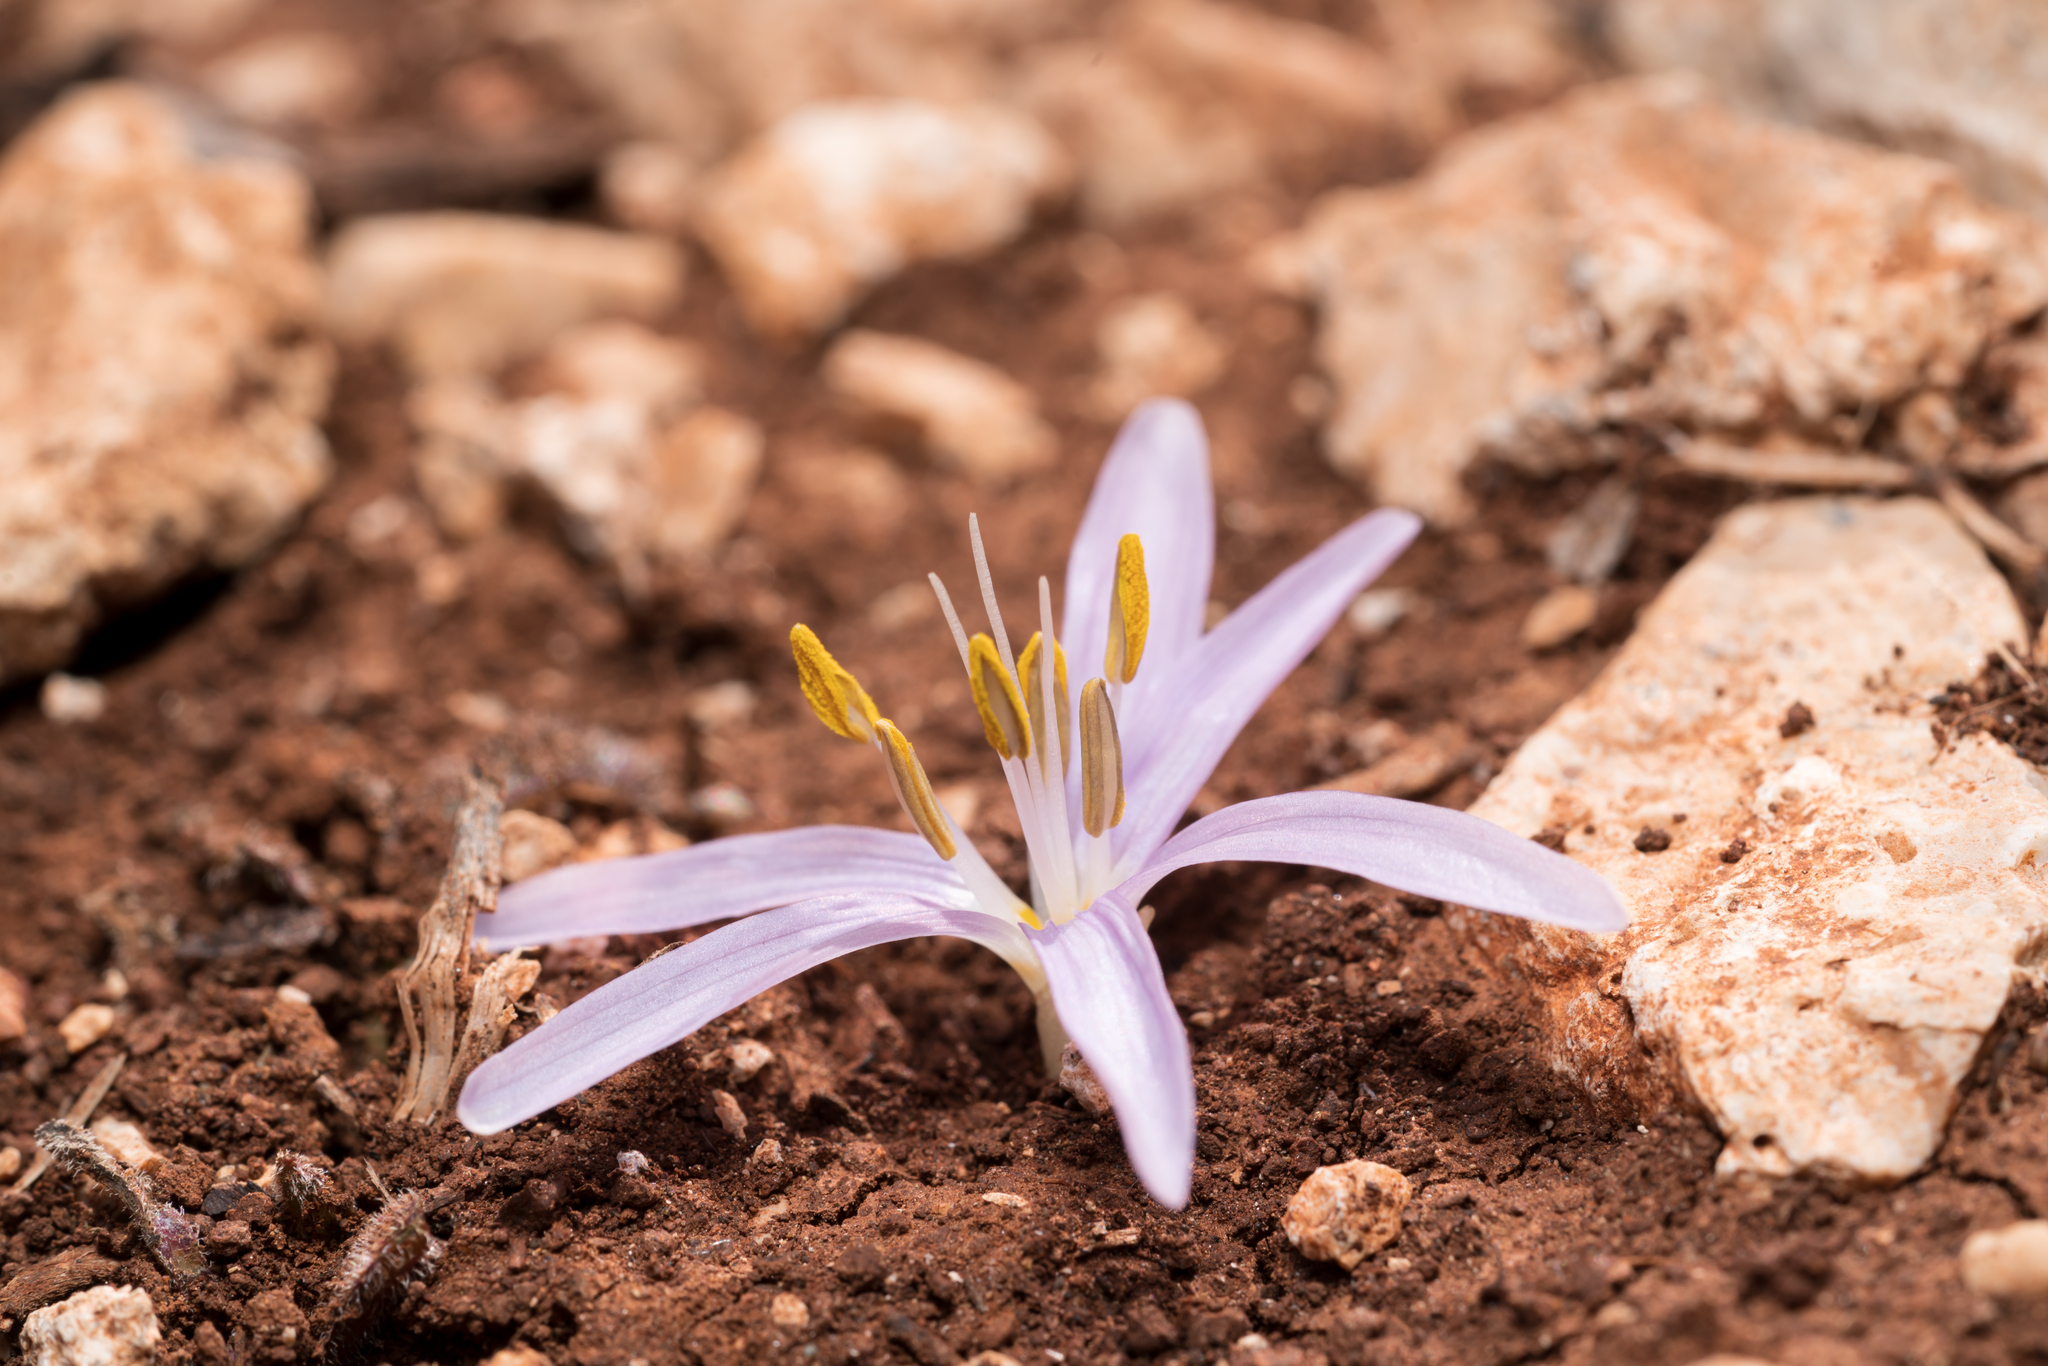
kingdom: Plantae
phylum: Tracheophyta
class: Liliopsida
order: Liliales
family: Colchicaceae
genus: Colchicum
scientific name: Colchicum pusillum
